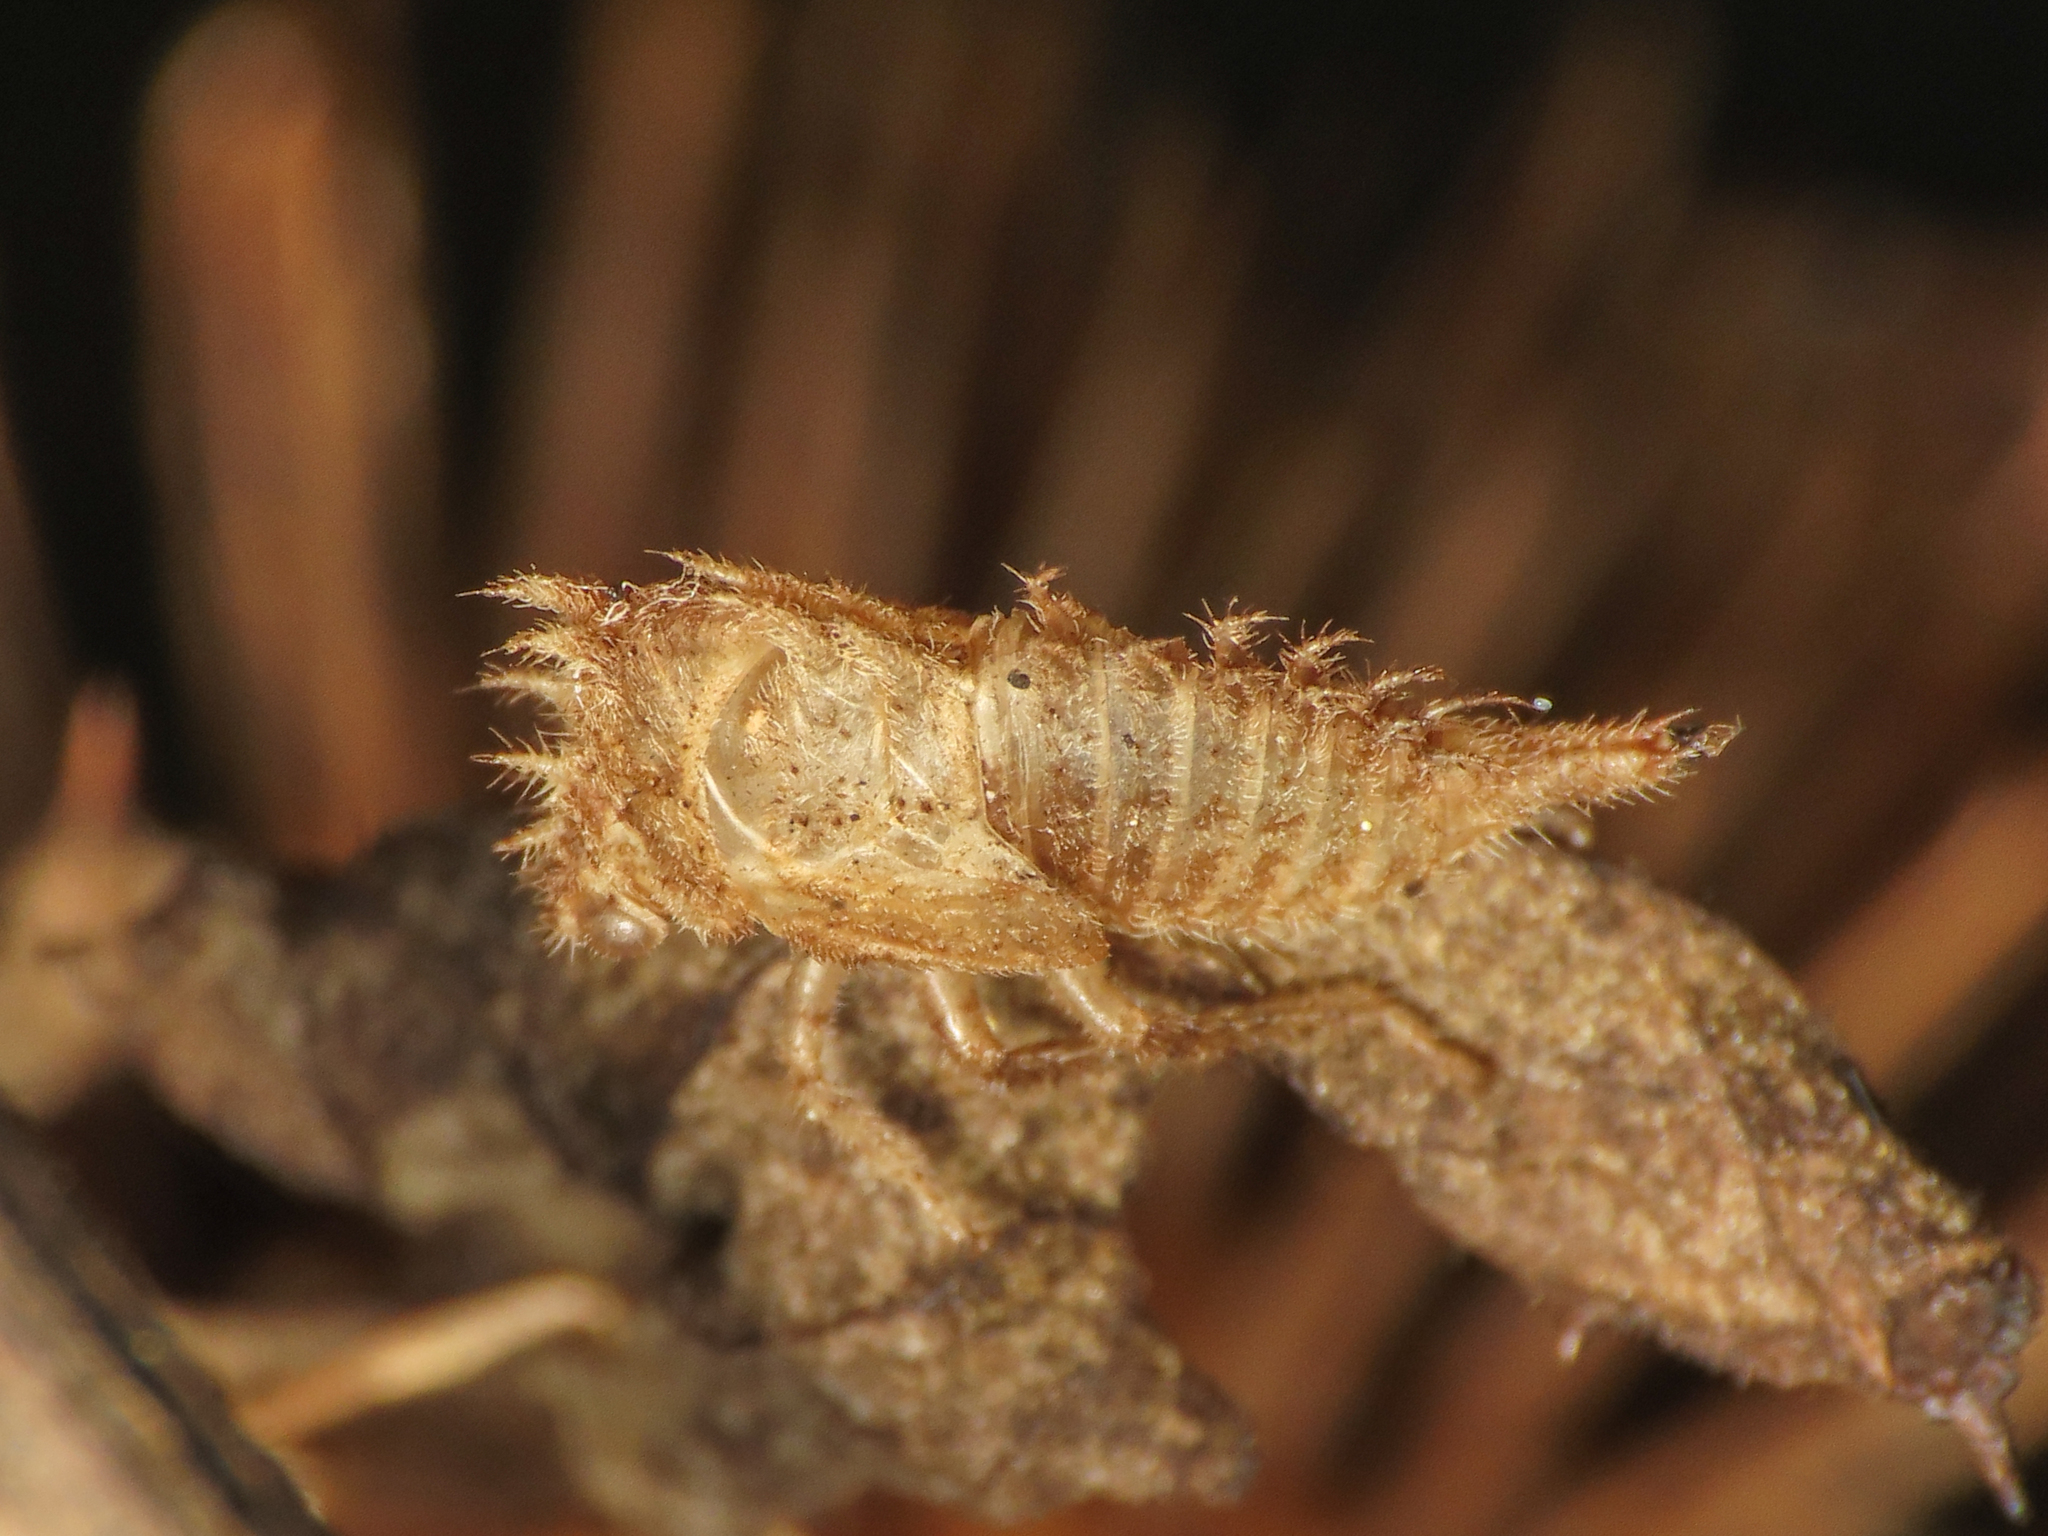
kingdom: Animalia
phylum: Arthropoda
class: Insecta
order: Hemiptera
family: Membracidae
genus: Stictocephala
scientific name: Stictocephala bisonia
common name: American buffalo treehopper
